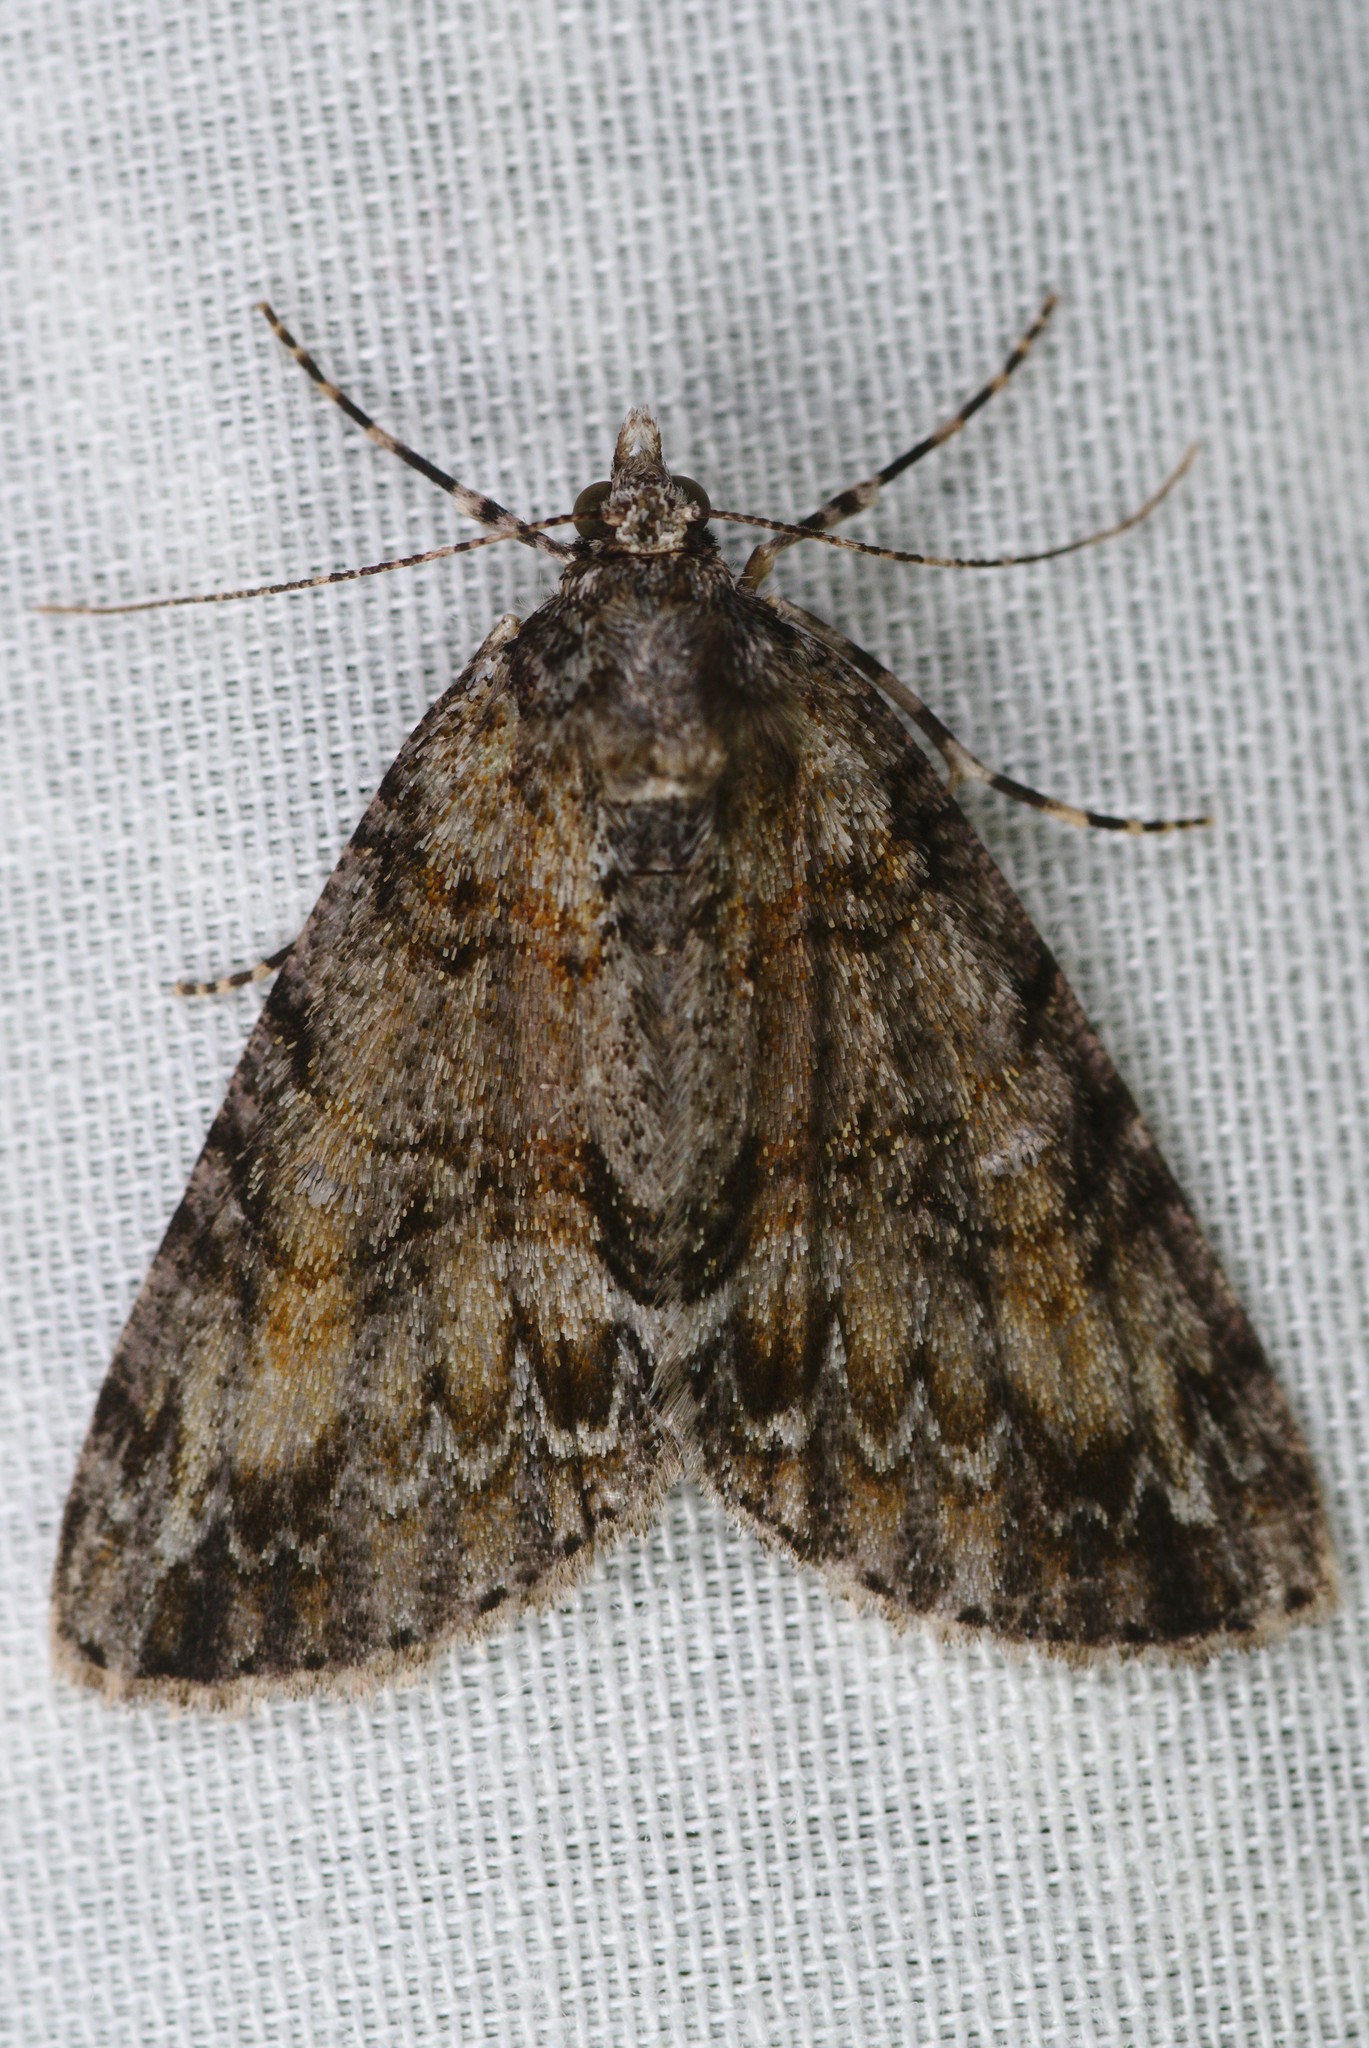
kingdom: Animalia
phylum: Arthropoda
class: Insecta
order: Lepidoptera
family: Geometridae
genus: Pseudocoremia
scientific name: Pseudocoremia suavis
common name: Common forest looper
